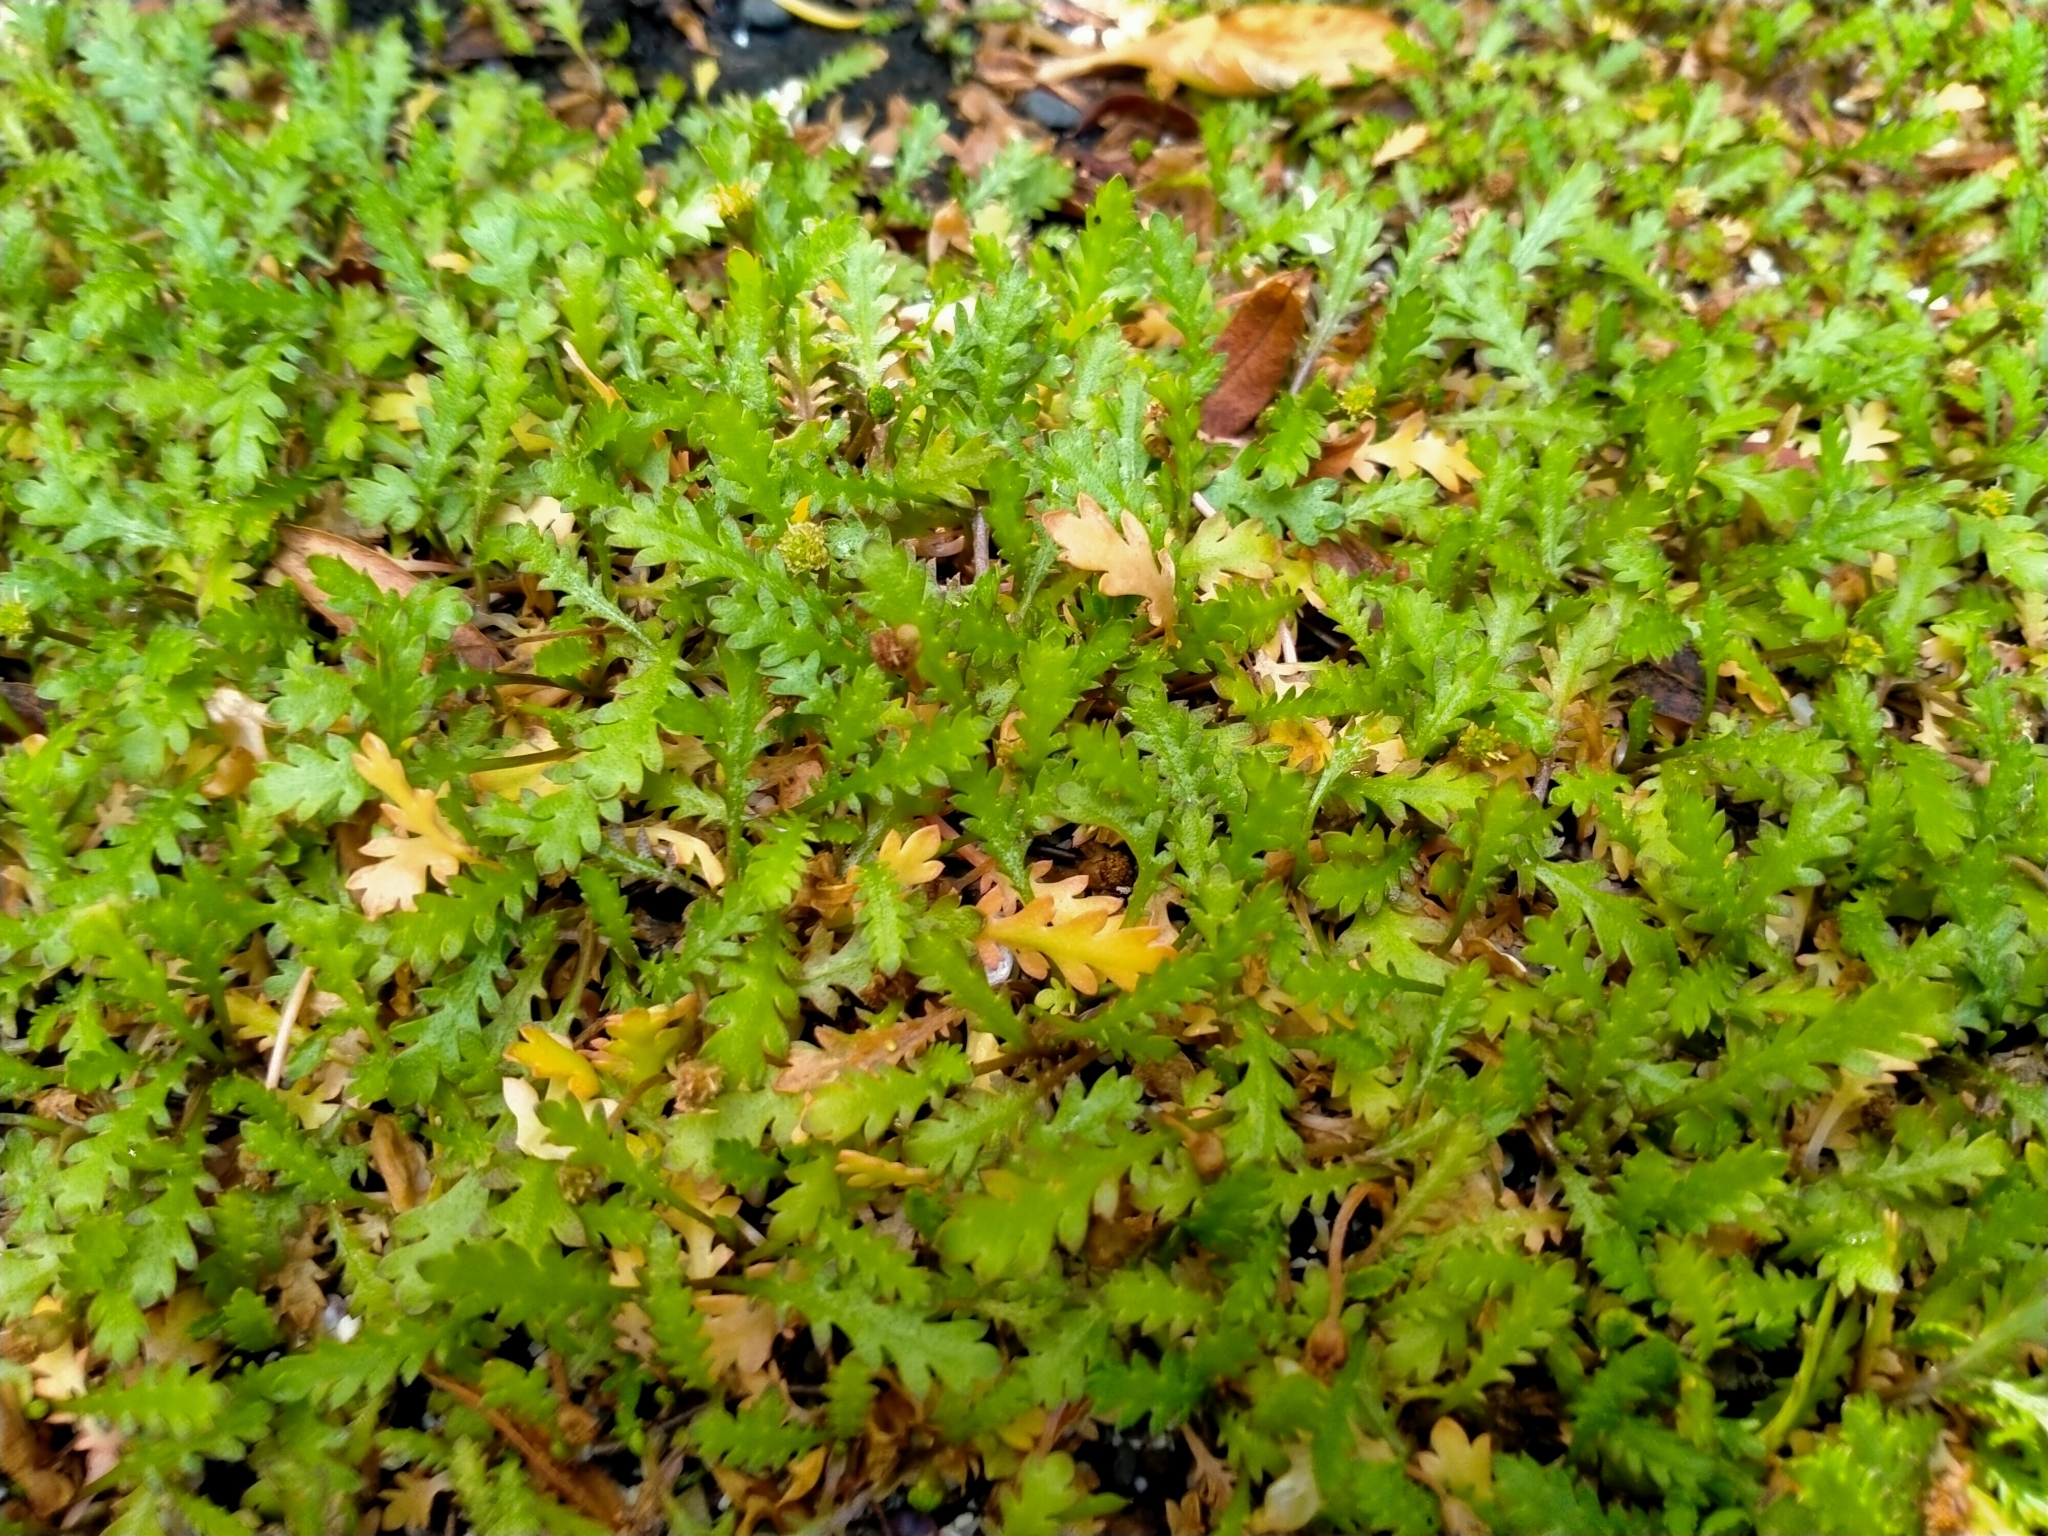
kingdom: Plantae
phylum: Tracheophyta
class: Magnoliopsida
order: Asterales
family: Asteraceae
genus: Leptinella
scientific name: Leptinella dioica
